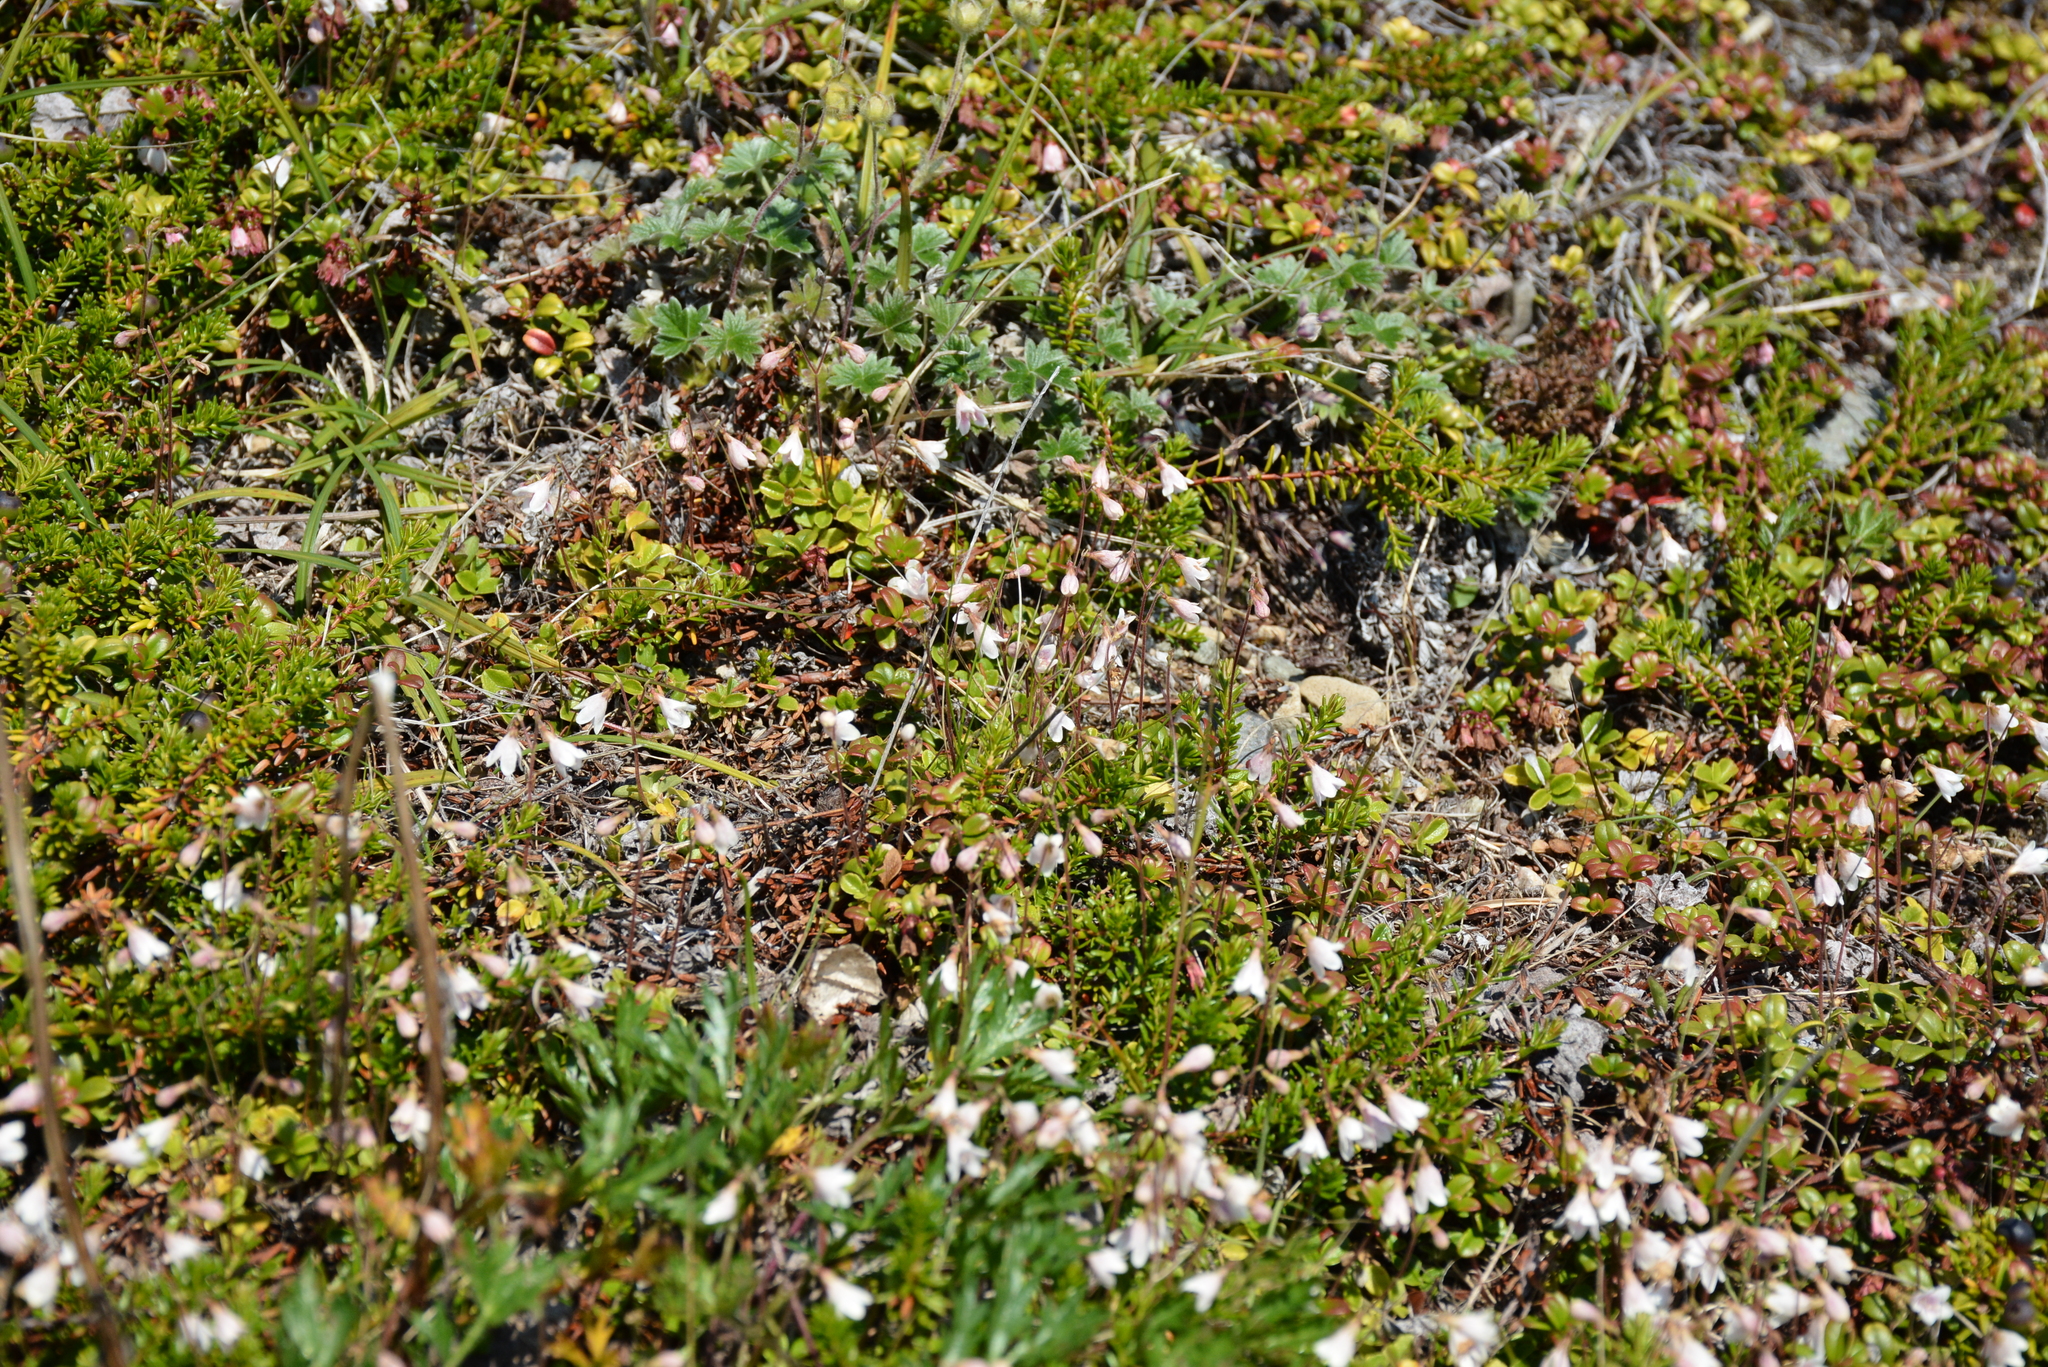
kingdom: Plantae
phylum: Tracheophyta
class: Magnoliopsida
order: Dipsacales
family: Caprifoliaceae
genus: Linnaea
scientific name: Linnaea borealis
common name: Twinflower
